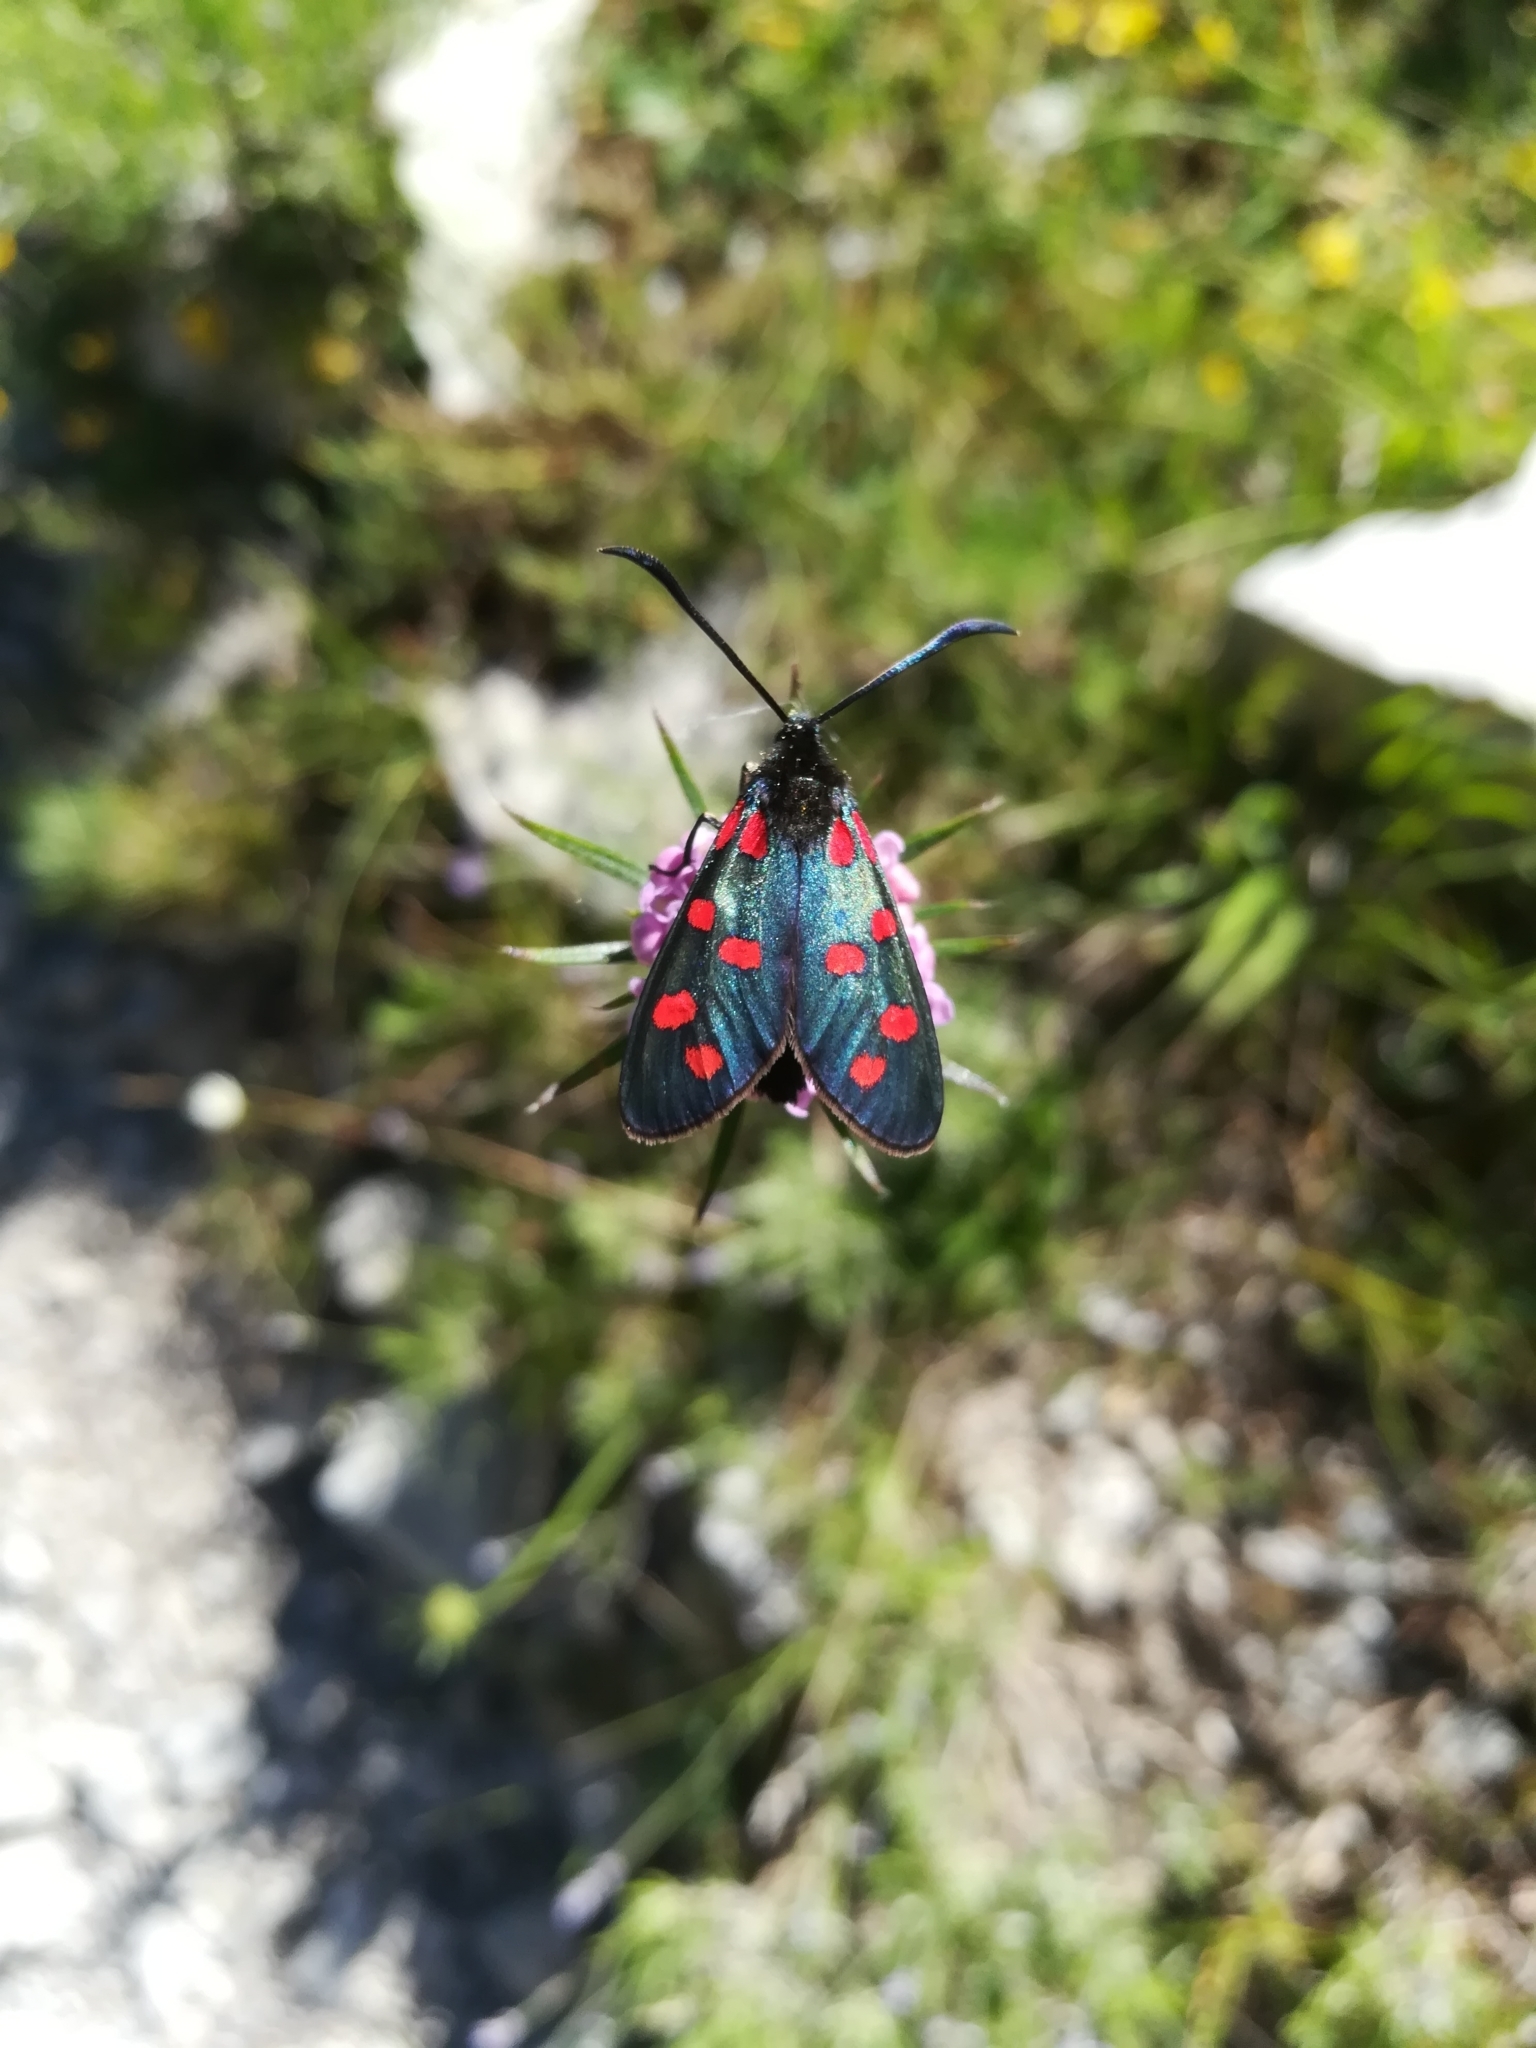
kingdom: Animalia
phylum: Arthropoda
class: Insecta
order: Lepidoptera
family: Zygaenidae
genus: Zygaena
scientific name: Zygaena transalpina
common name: Southern six spot burnet
